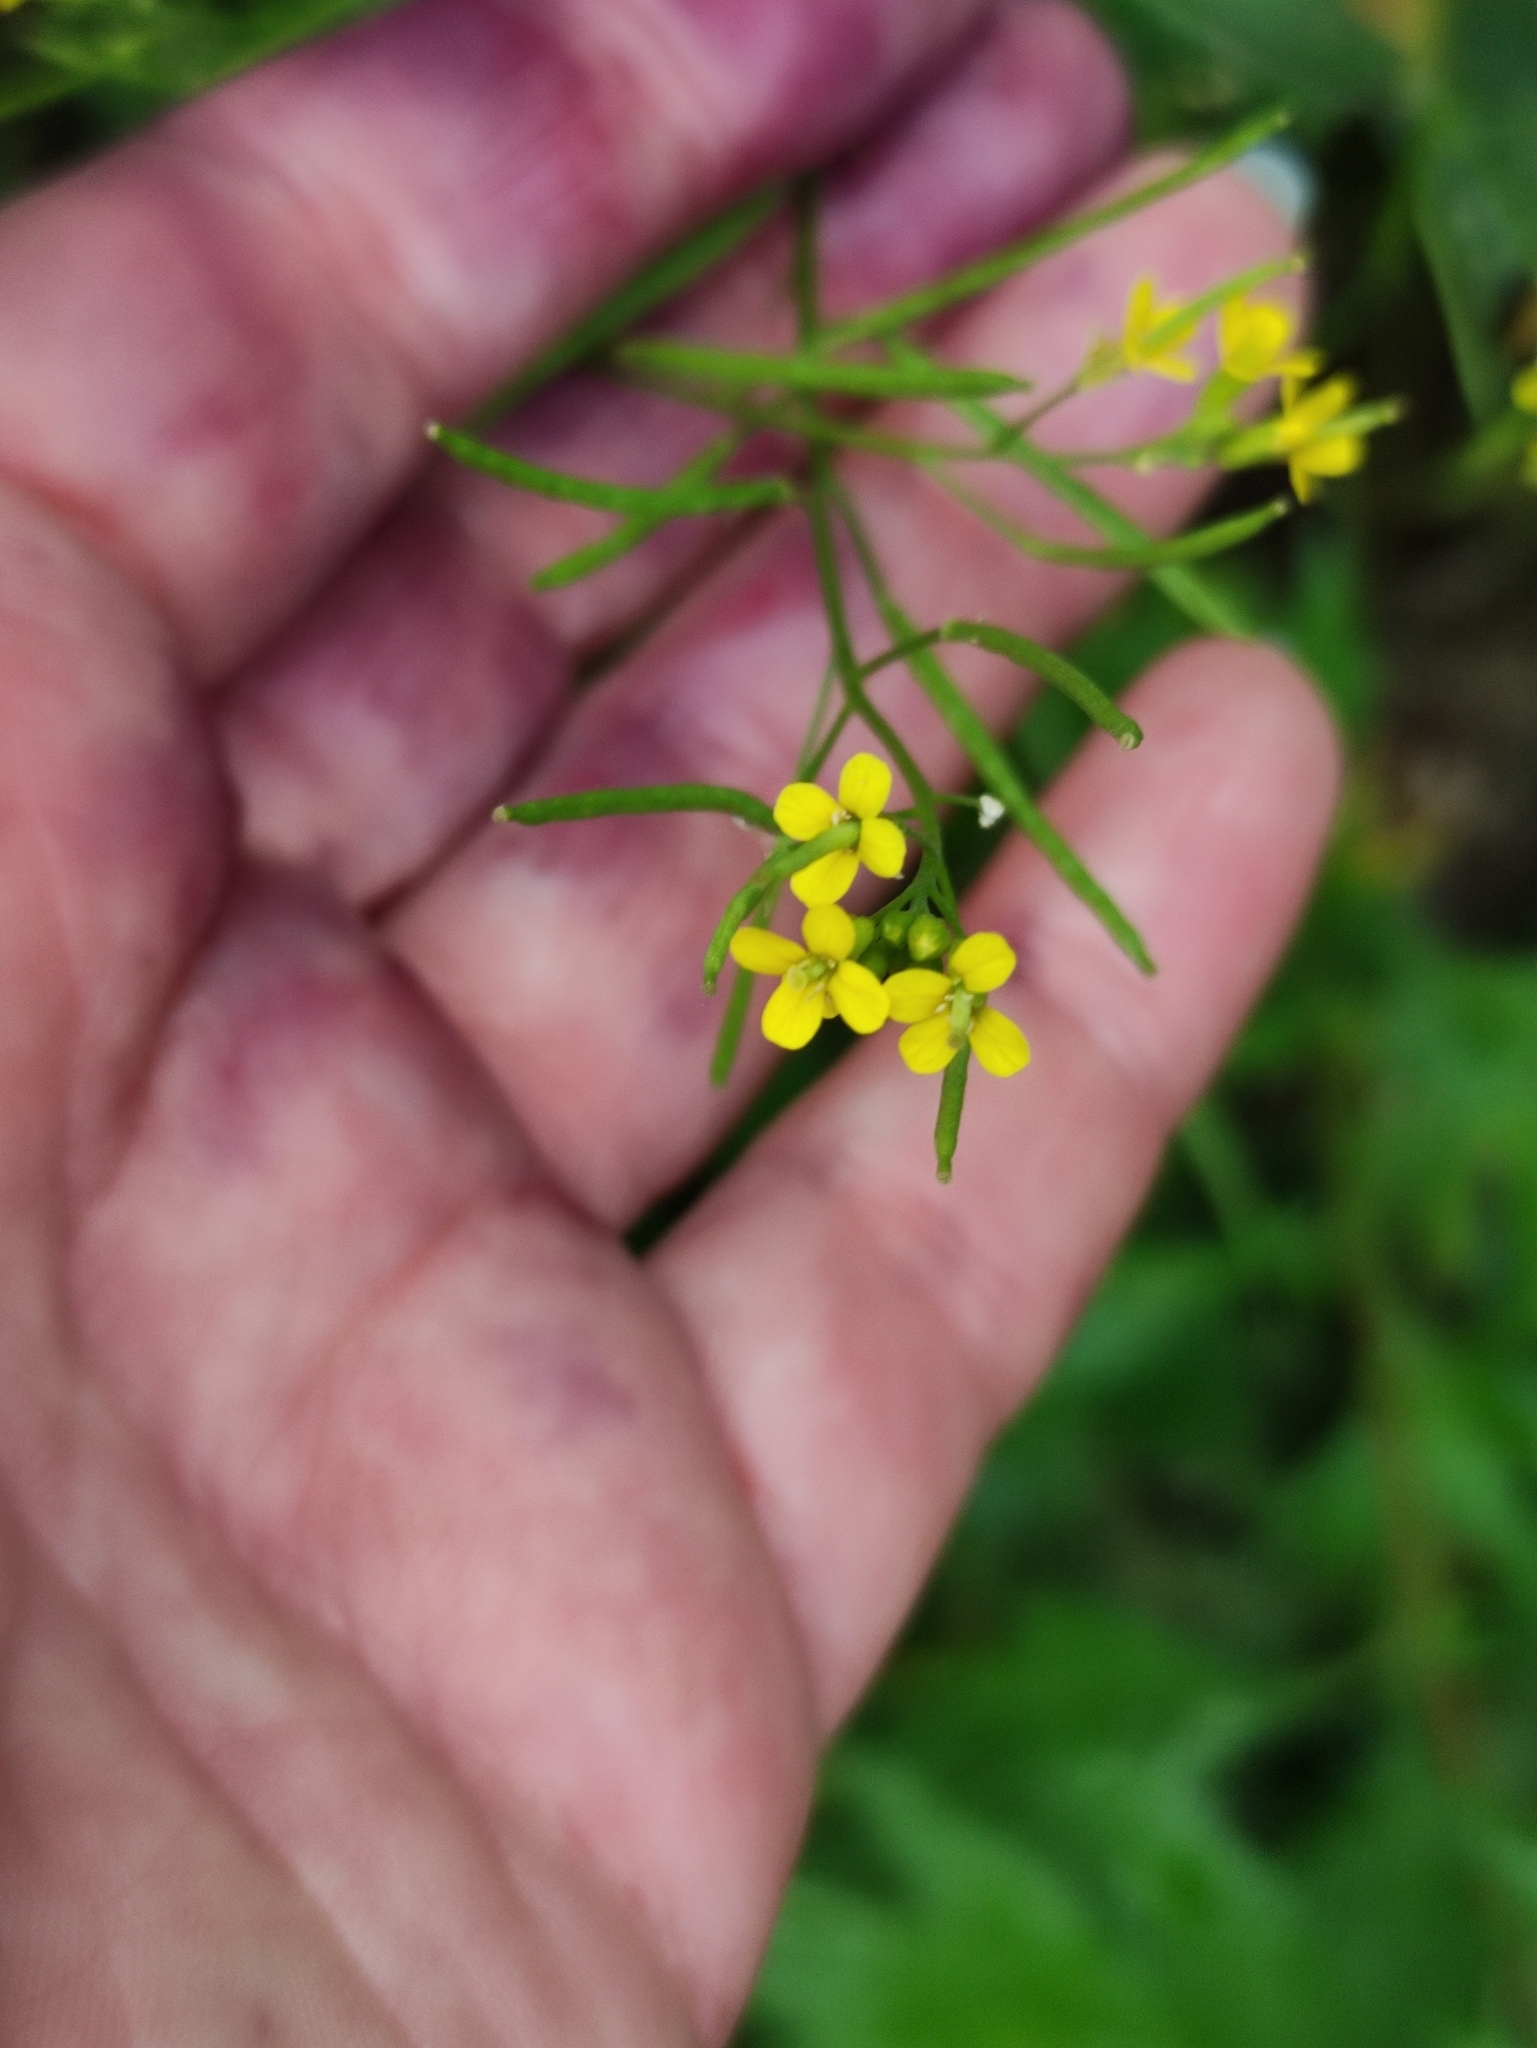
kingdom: Plantae
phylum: Tracheophyta
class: Magnoliopsida
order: Brassicales
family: Brassicaceae
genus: Erysimum
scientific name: Erysimum cheiranthoides
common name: Treacle mustard
